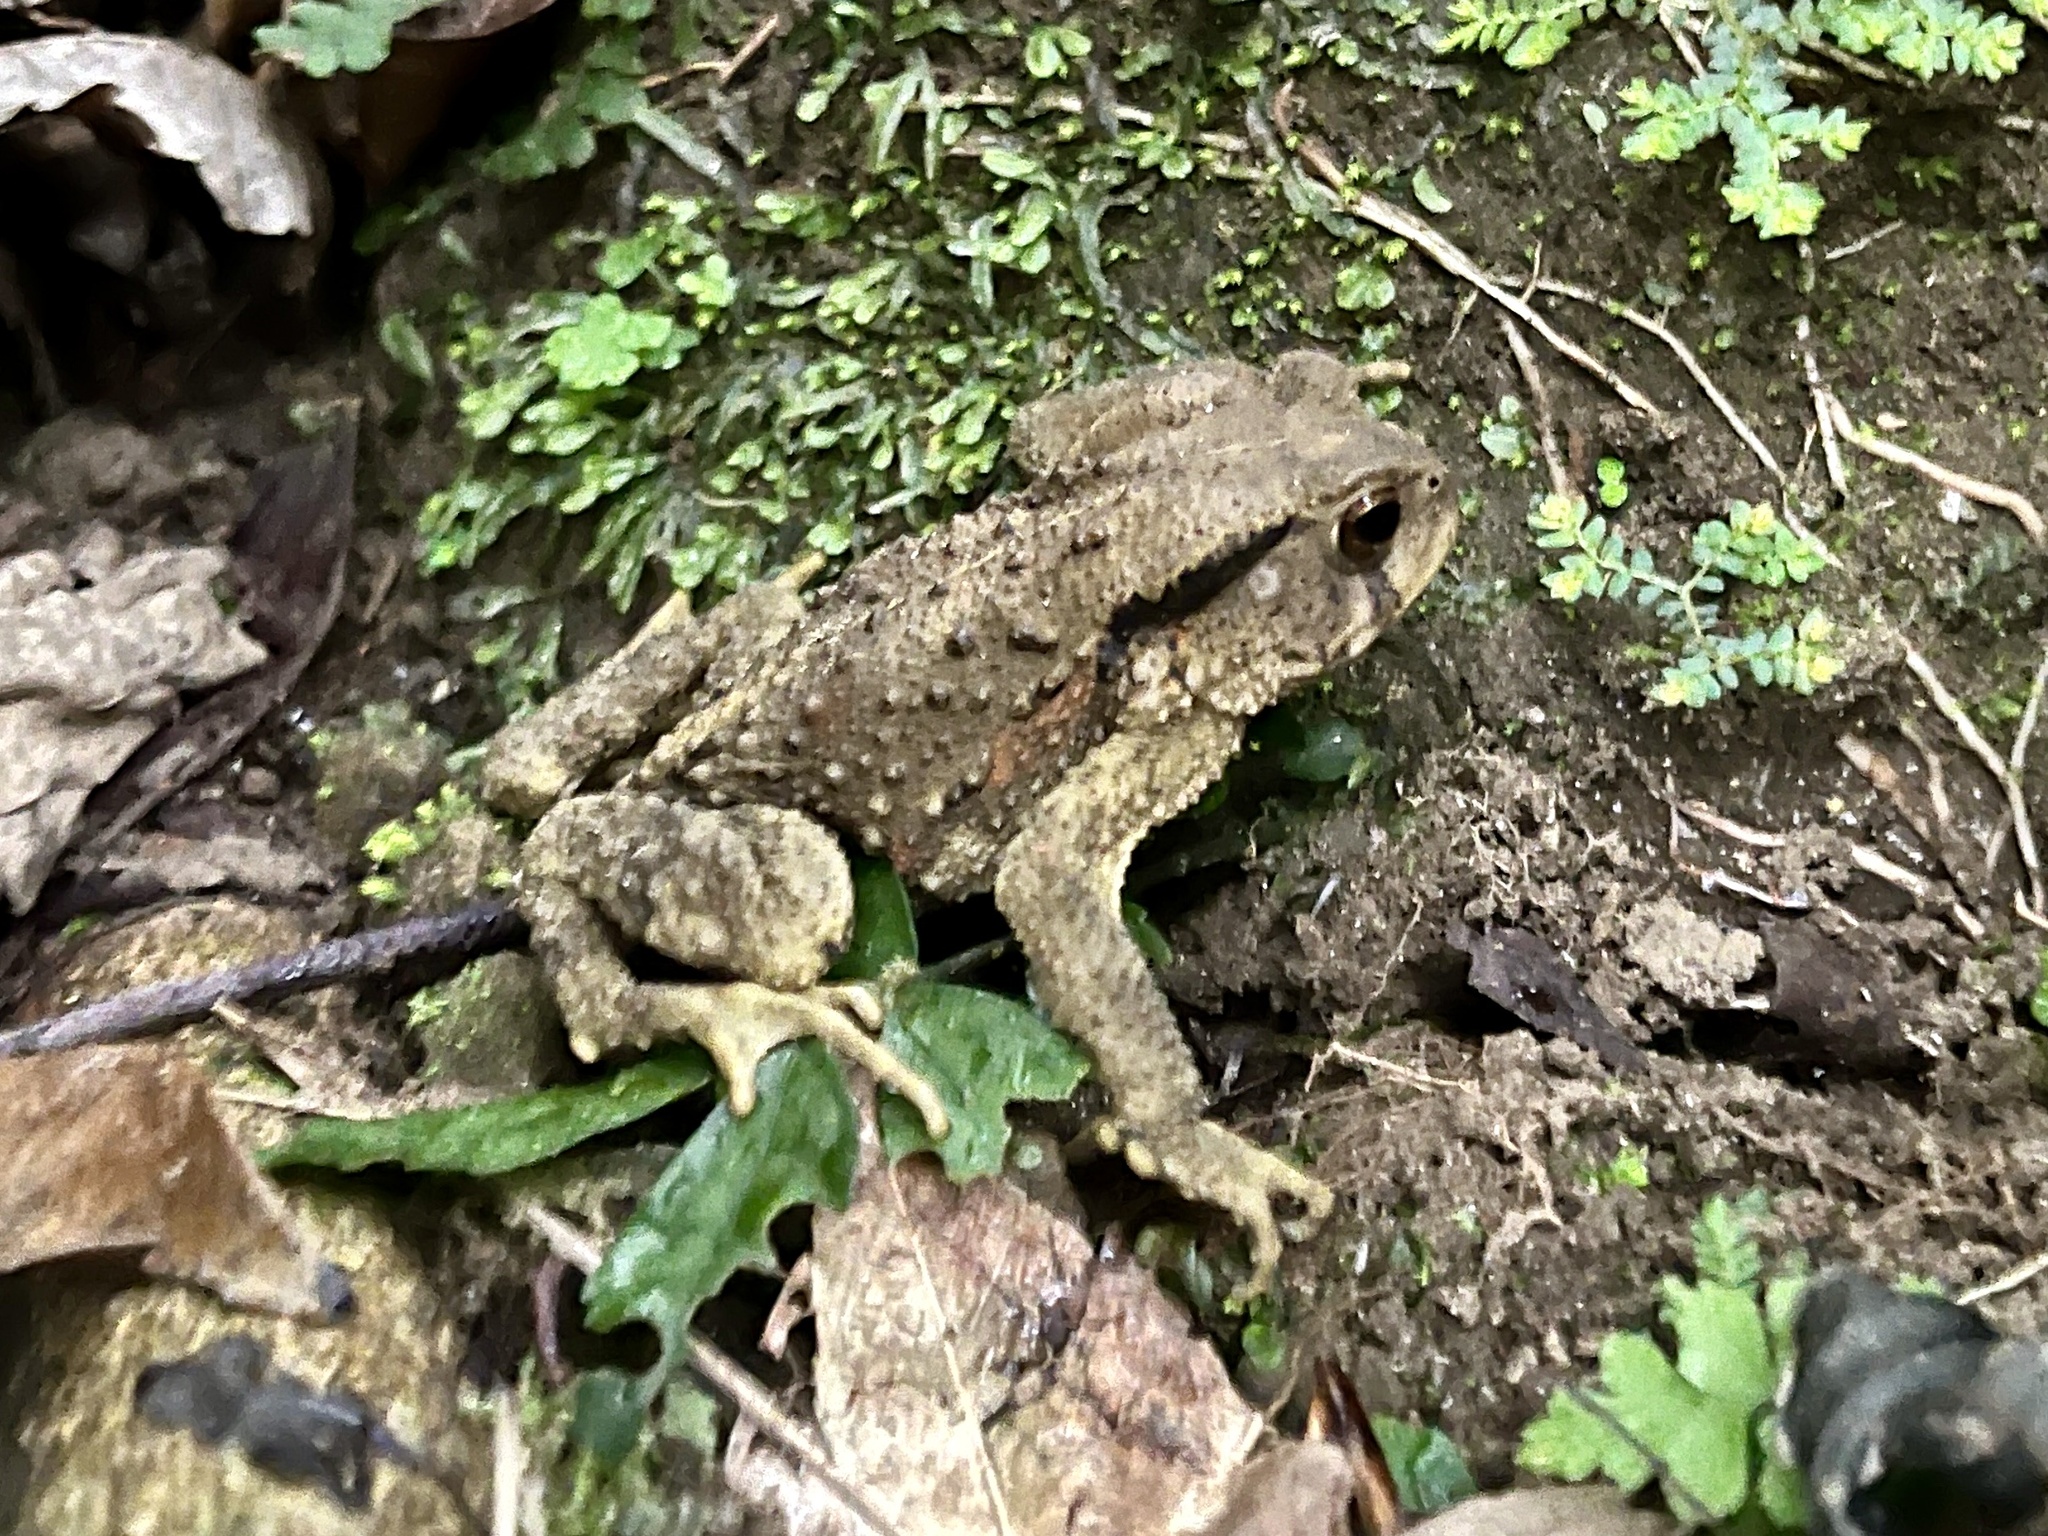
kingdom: Animalia
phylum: Chordata
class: Amphibia
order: Anura
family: Bufonidae
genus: Bufo
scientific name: Bufo bankorensis
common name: Bankor toad
